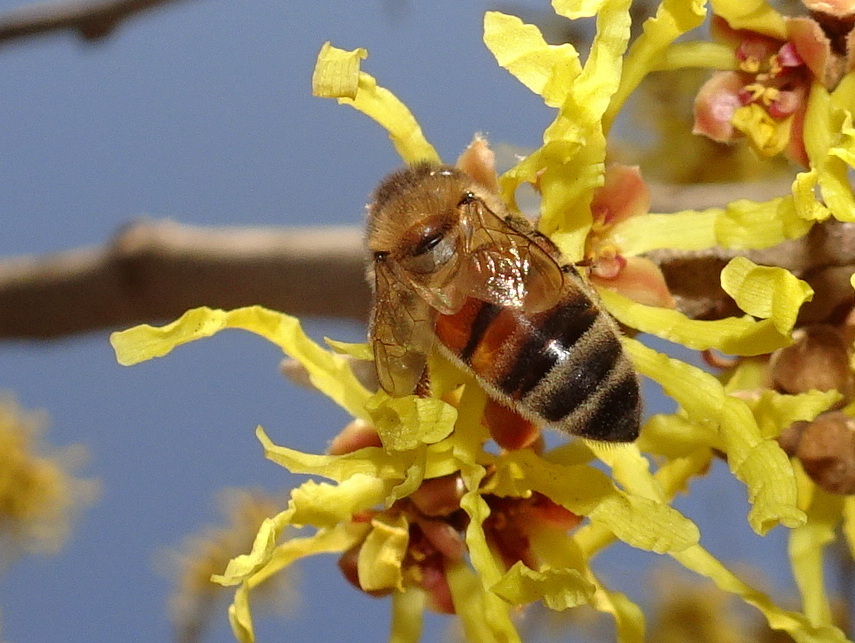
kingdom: Animalia
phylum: Arthropoda
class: Insecta
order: Hymenoptera
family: Apidae
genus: Apis
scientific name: Apis mellifera
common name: Honey bee
